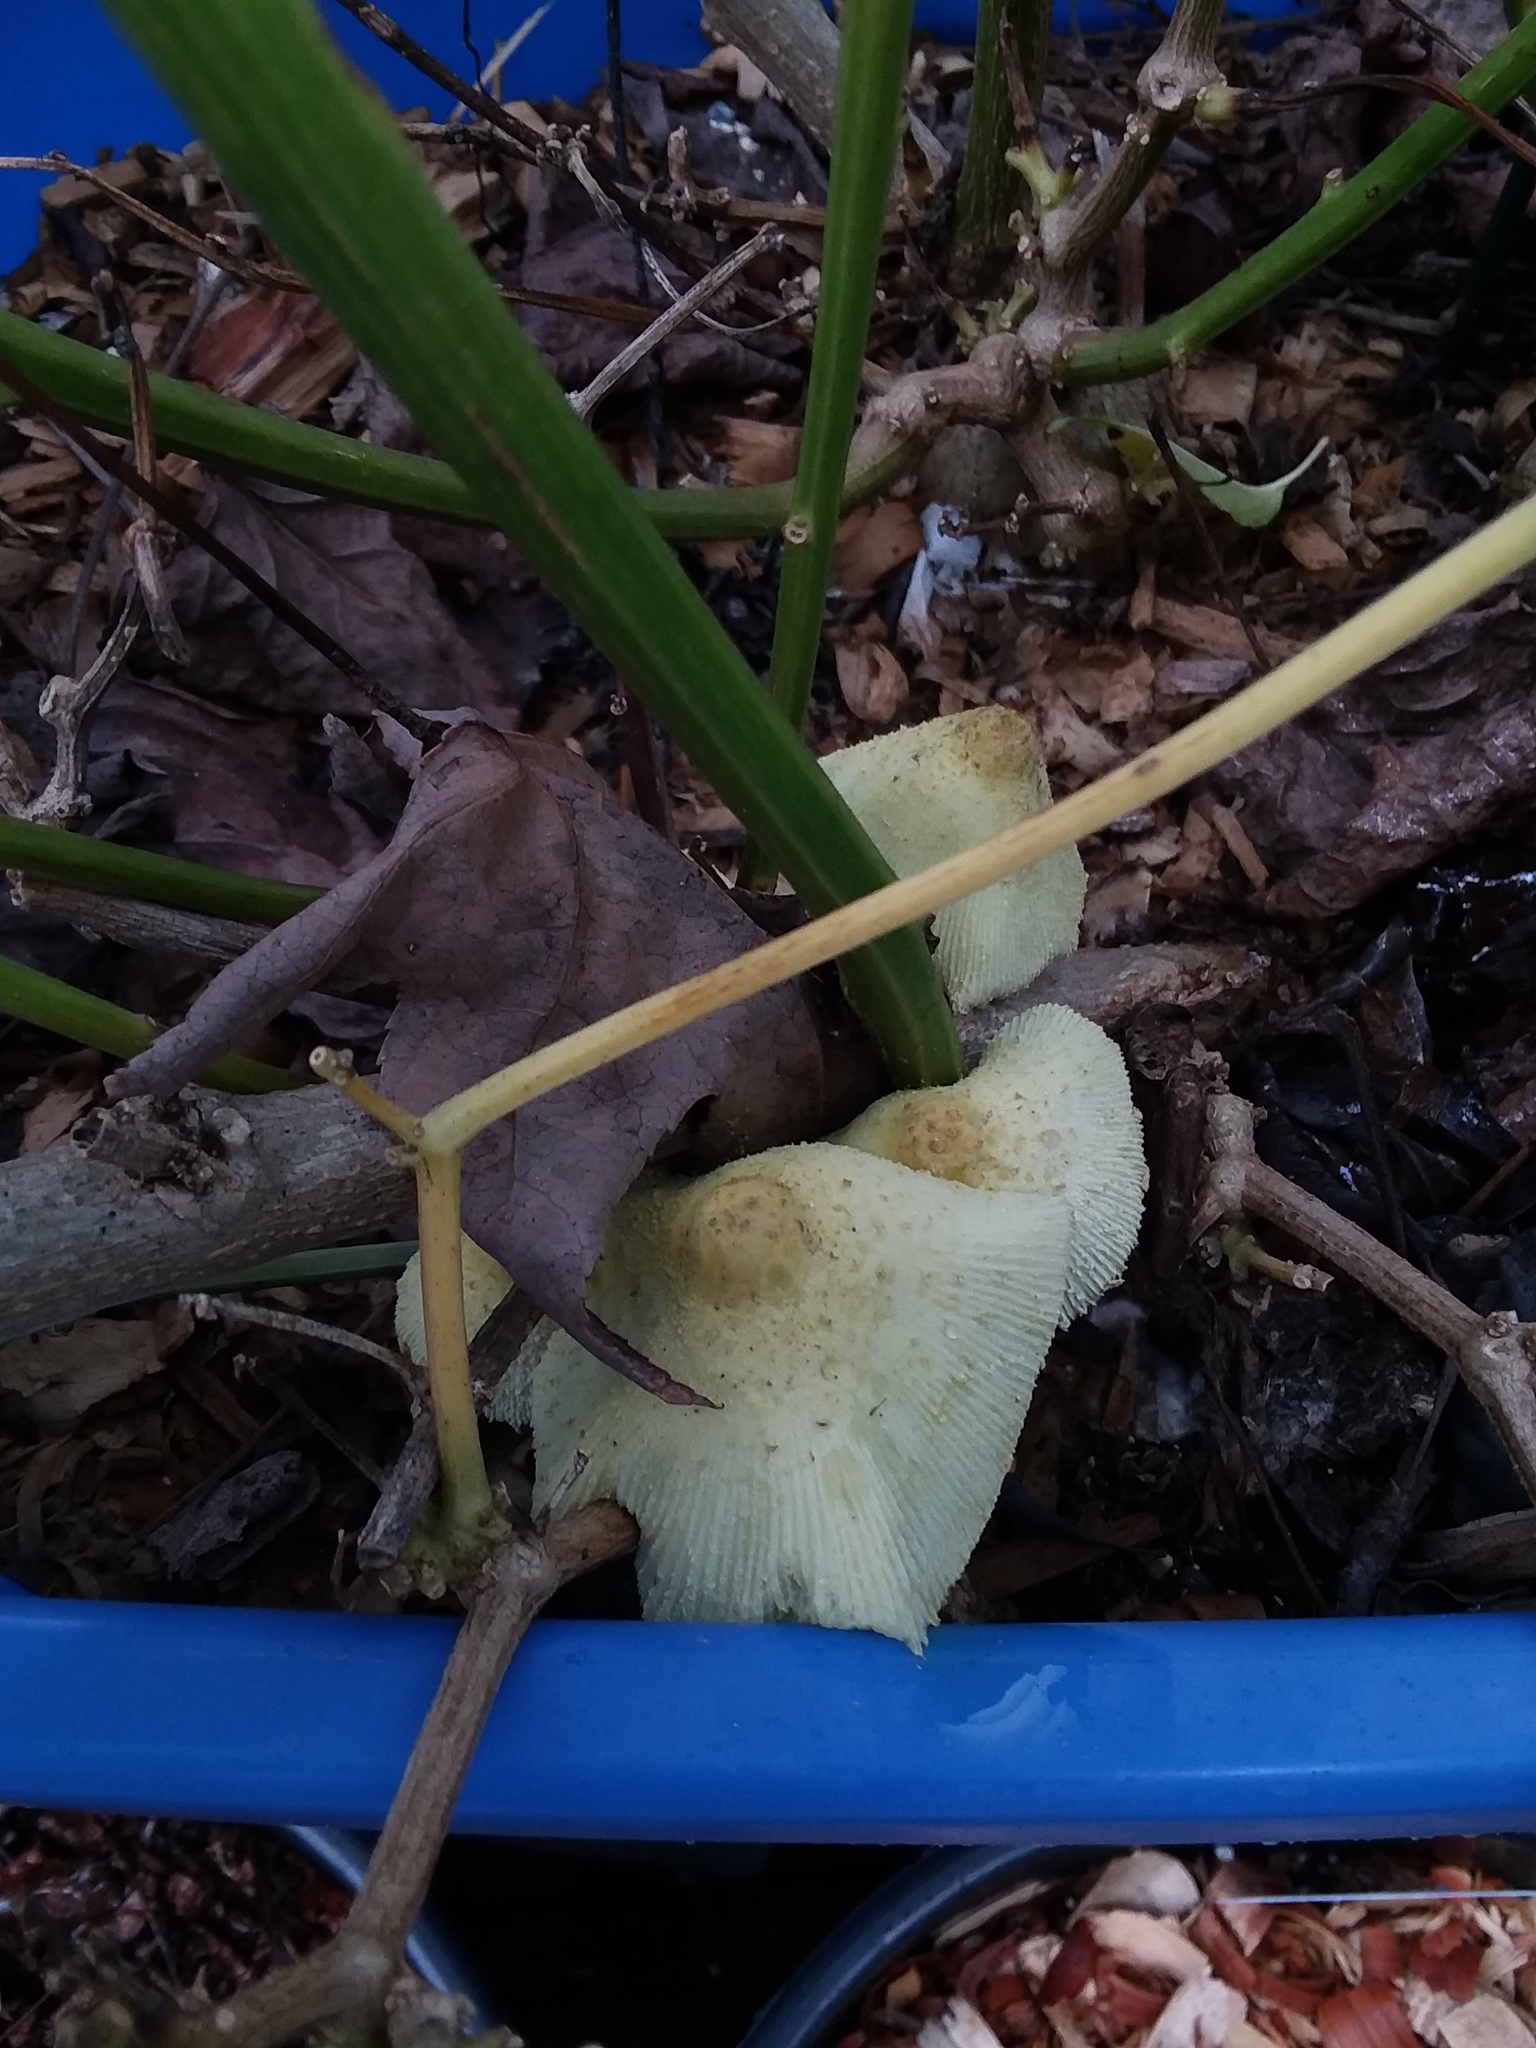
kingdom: Fungi
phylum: Basidiomycota
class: Agaricomycetes
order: Agaricales
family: Agaricaceae
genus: Leucocoprinus
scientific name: Leucocoprinus birnbaumii
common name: Plantpot dapperling
